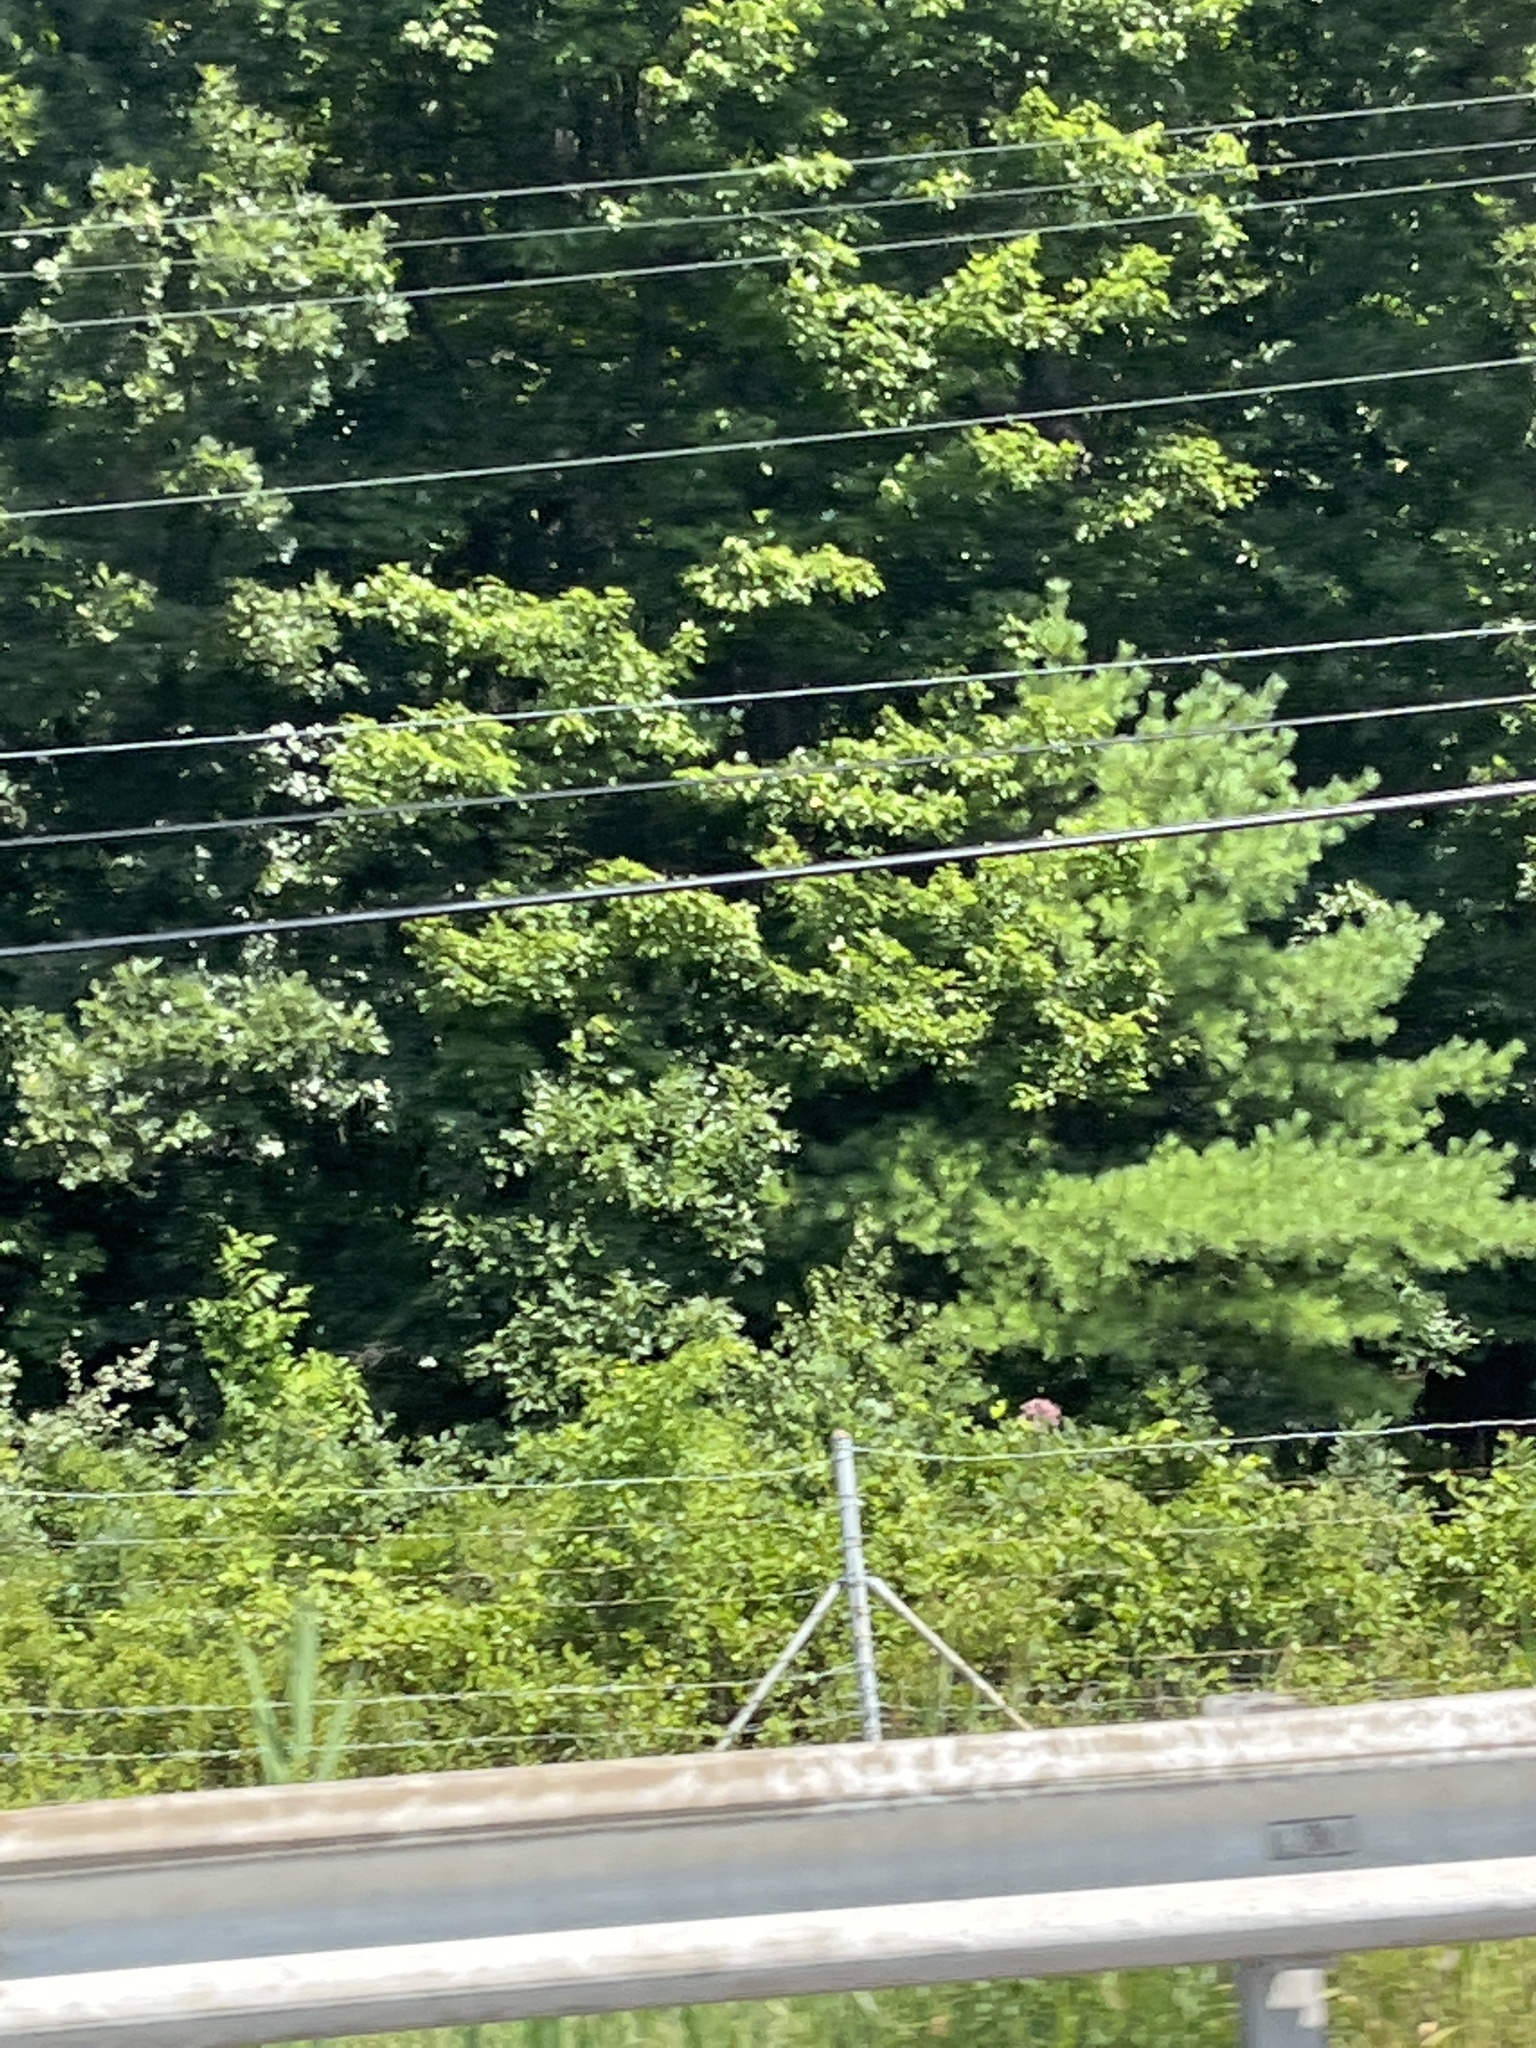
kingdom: Plantae
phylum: Tracheophyta
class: Pinopsida
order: Pinales
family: Pinaceae
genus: Pinus
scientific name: Pinus strobus
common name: Weymouth pine
